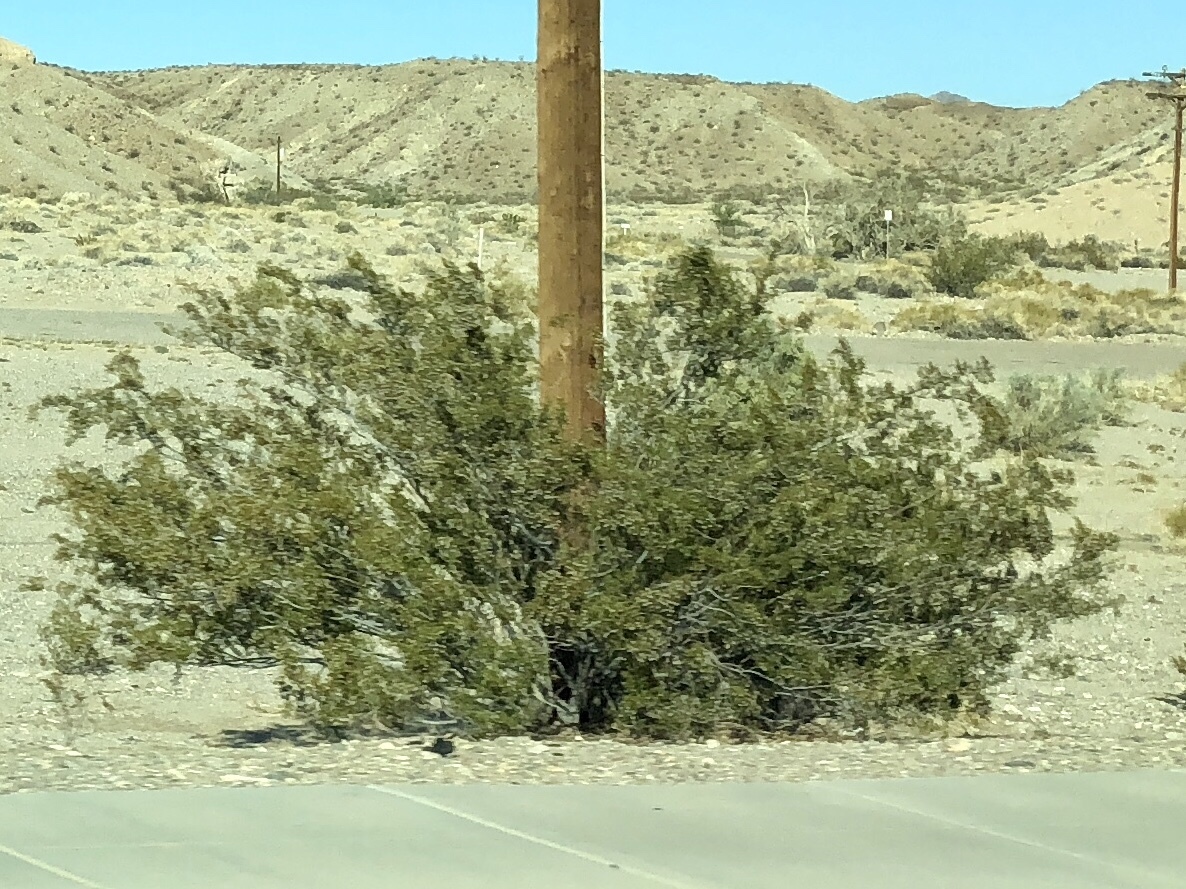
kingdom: Plantae
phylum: Tracheophyta
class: Magnoliopsida
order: Zygophyllales
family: Zygophyllaceae
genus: Larrea
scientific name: Larrea tridentata
